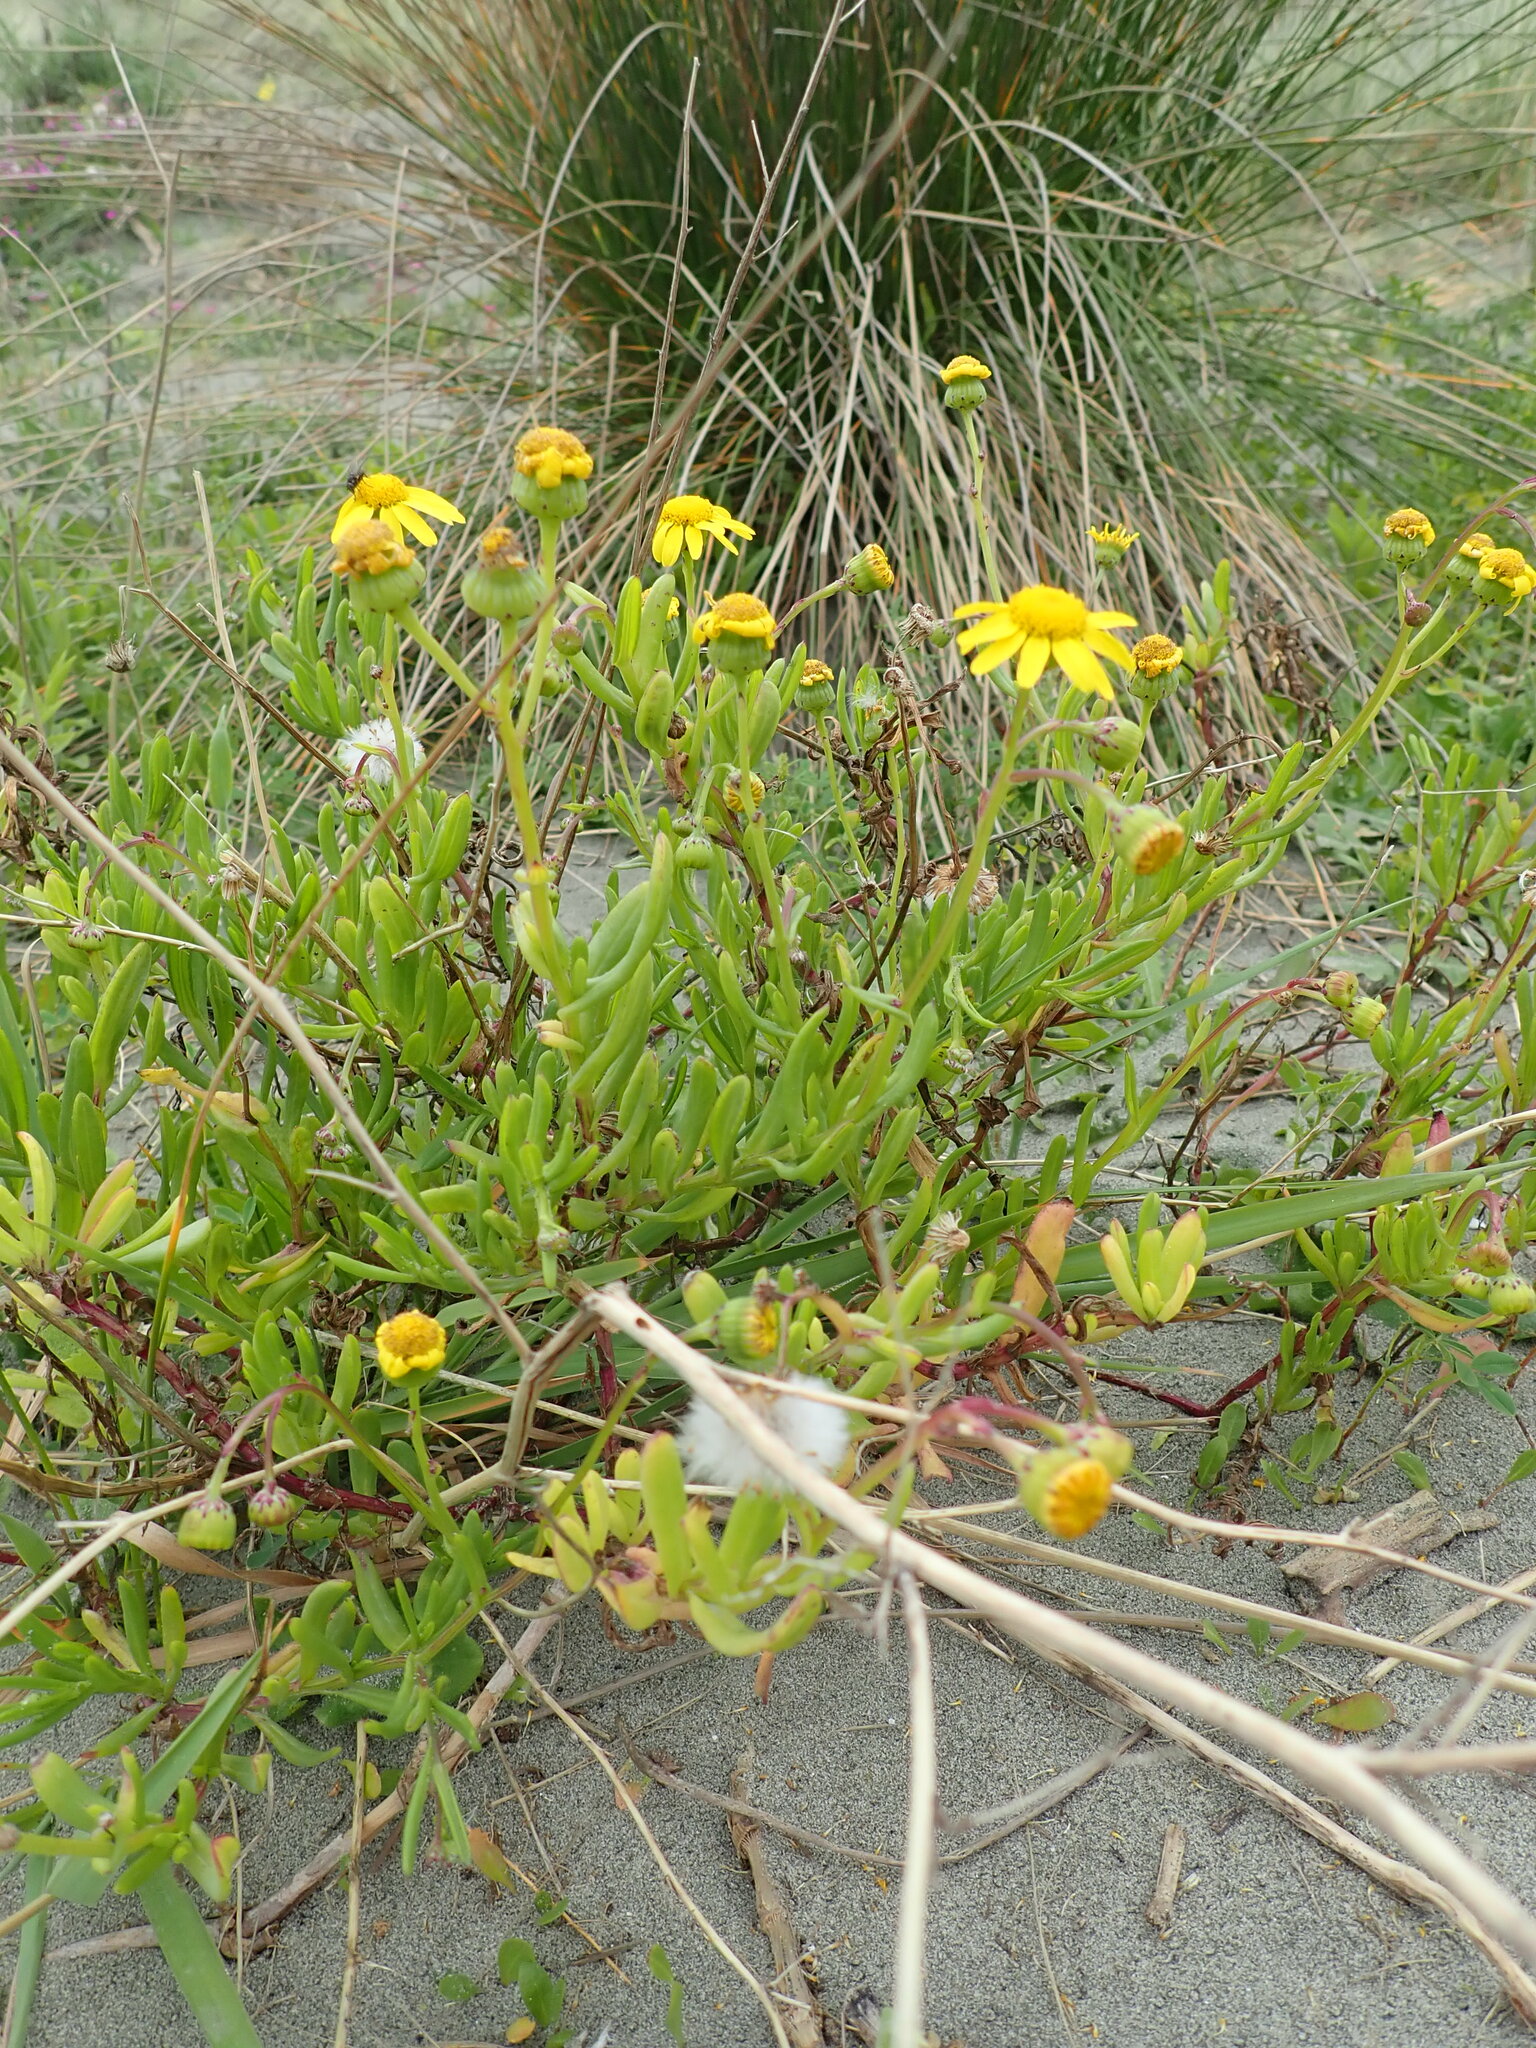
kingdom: Plantae
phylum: Tracheophyta
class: Magnoliopsida
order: Asterales
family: Asteraceae
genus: Senecio
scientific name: Senecio skirrhodon
